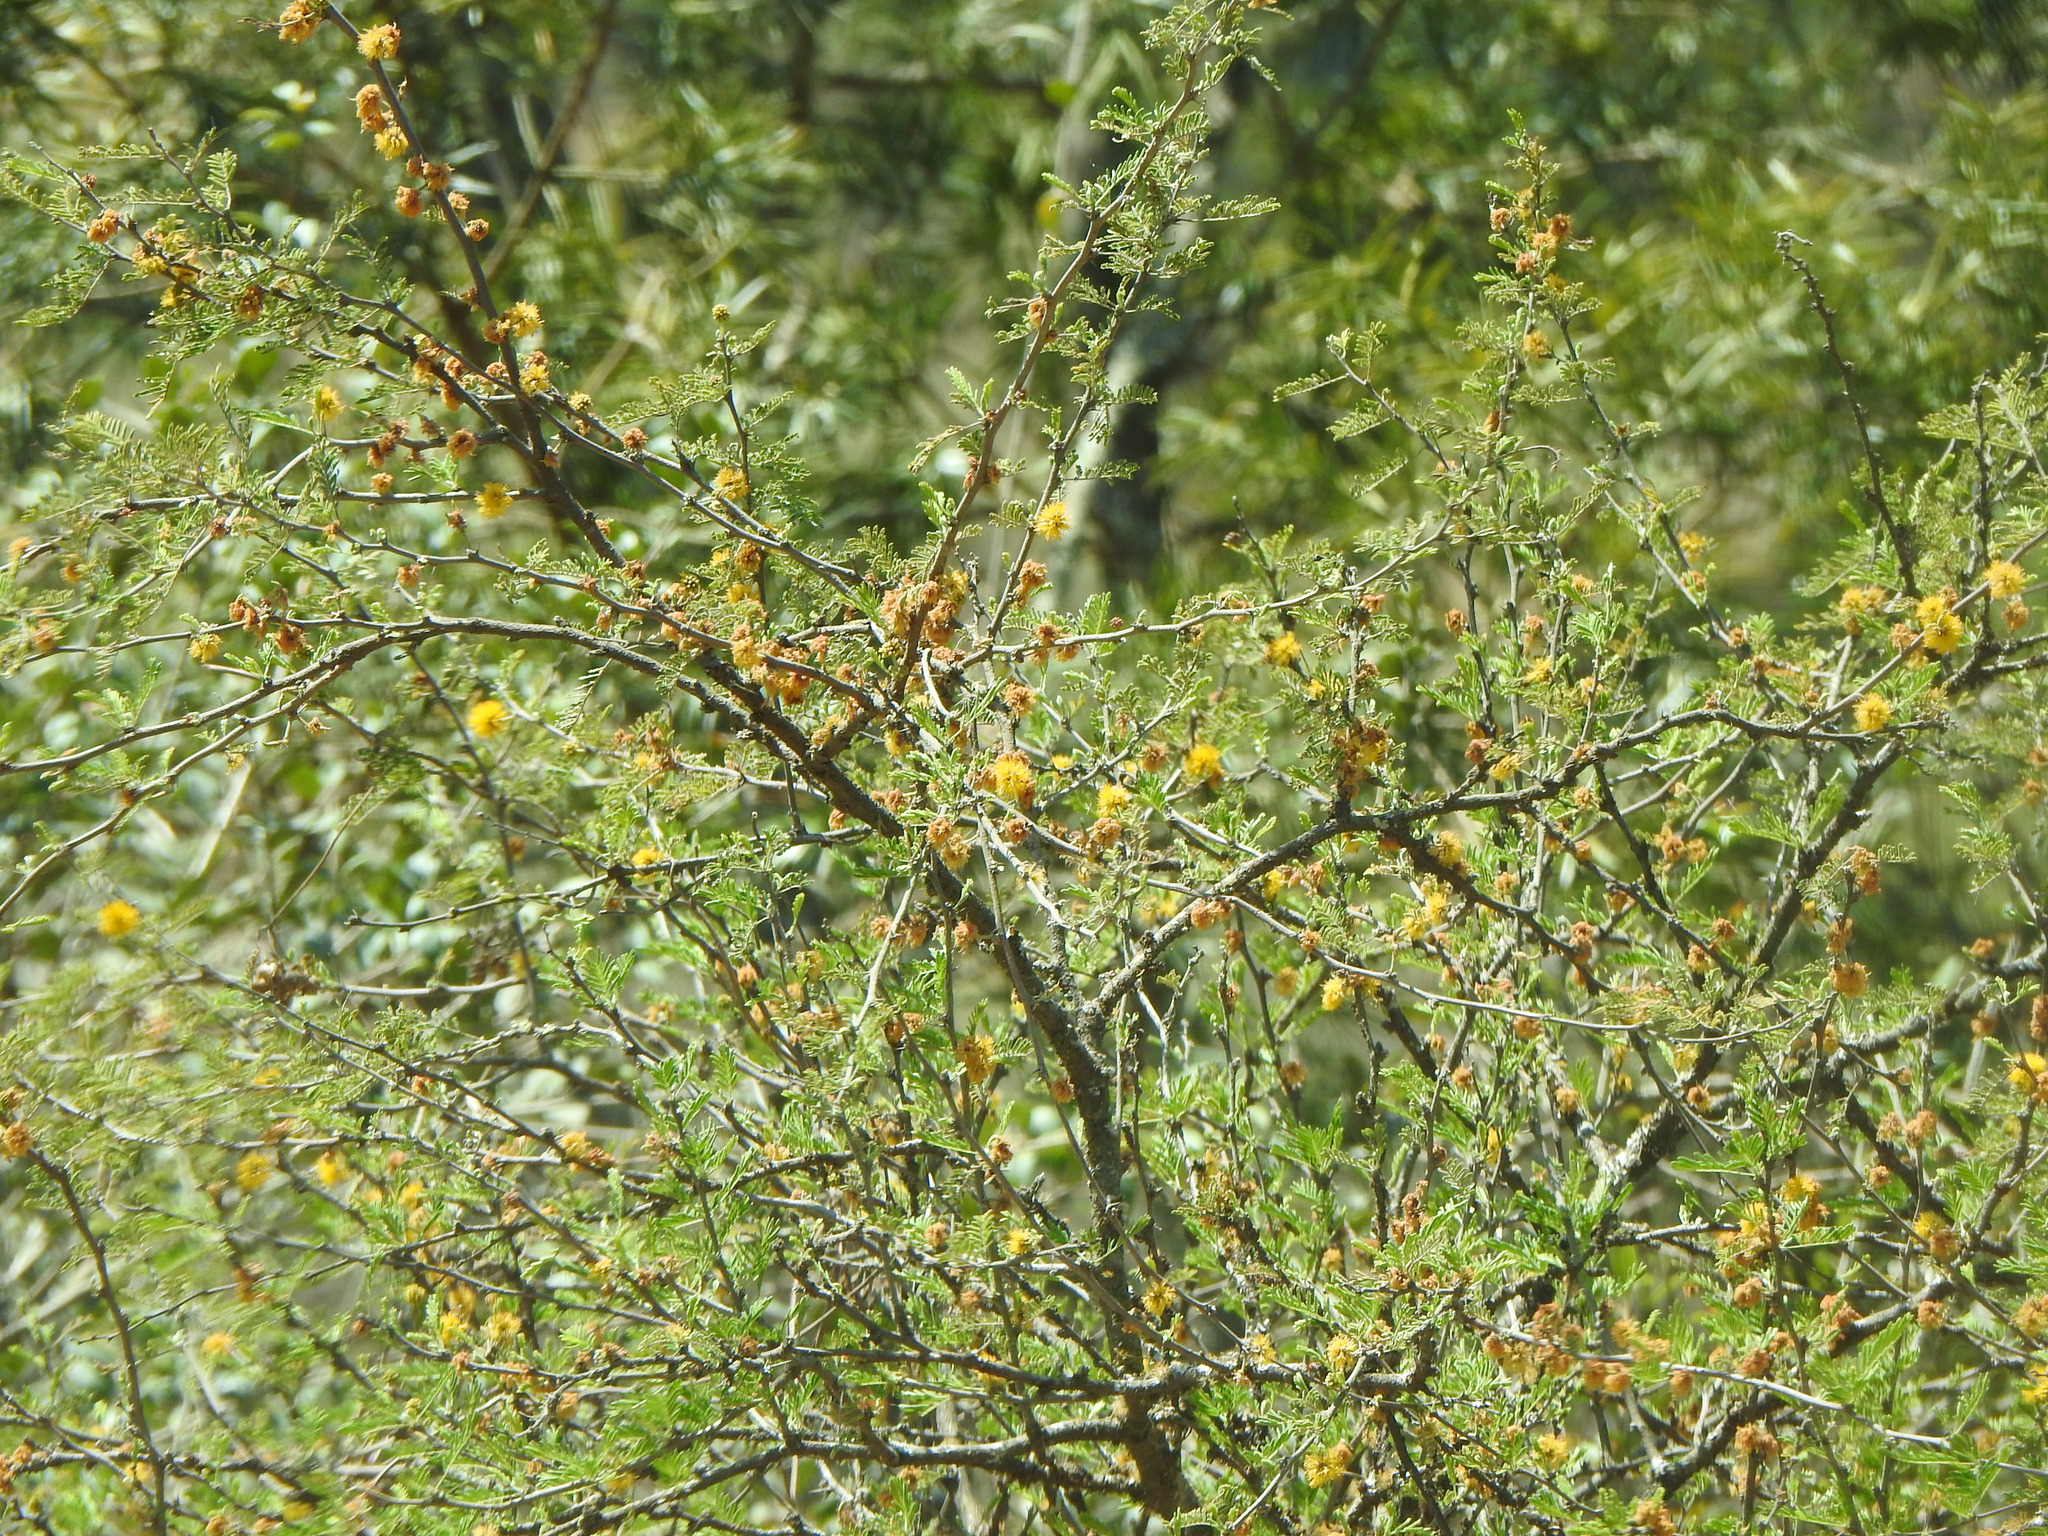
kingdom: Plantae
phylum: Tracheophyta
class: Magnoliopsida
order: Fabales
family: Fabaceae
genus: Vachellia
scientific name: Vachellia caven
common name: Roman cassie
